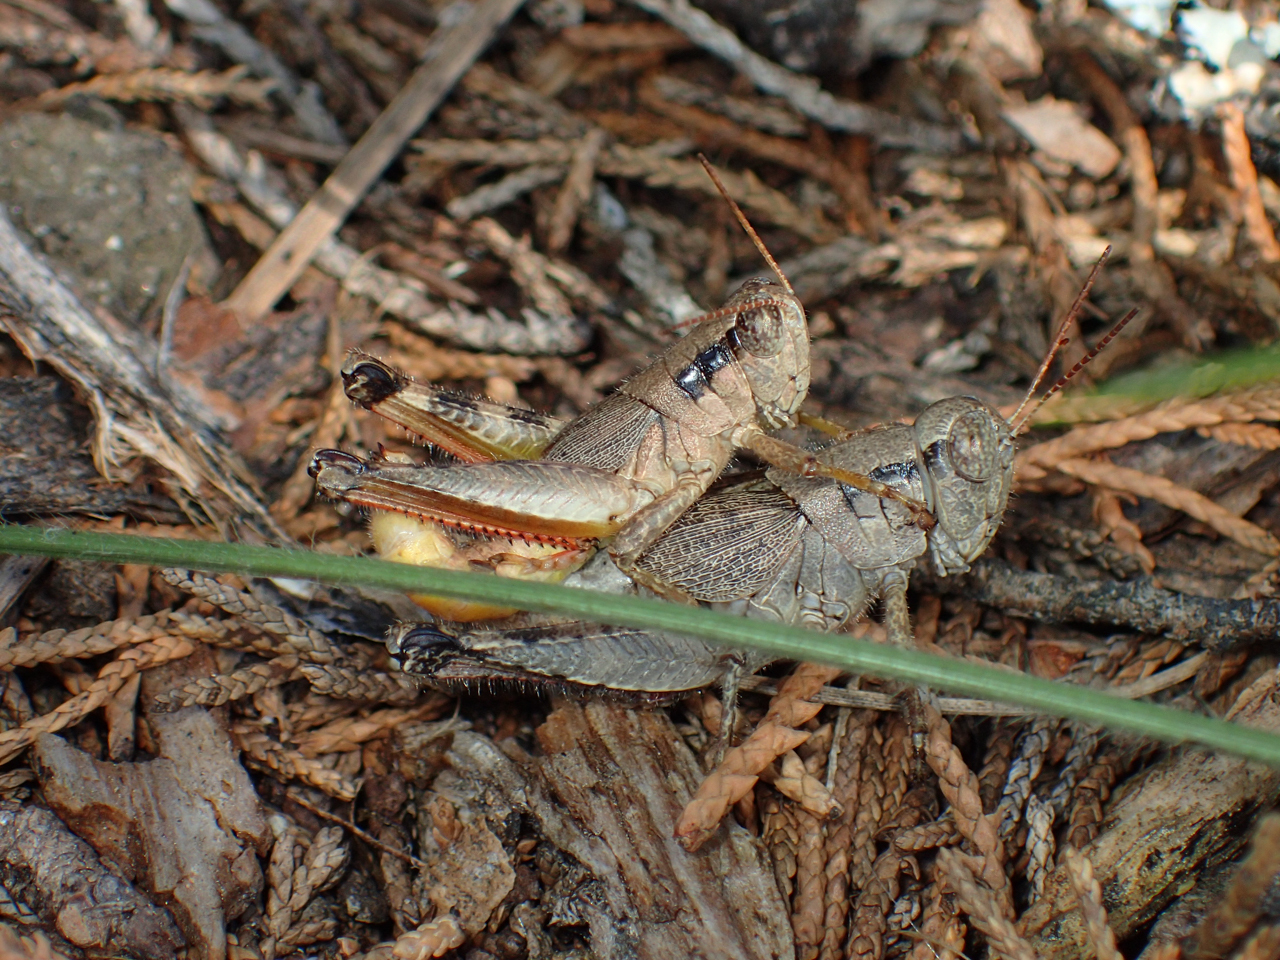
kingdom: Animalia
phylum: Arthropoda
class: Insecta
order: Orthoptera
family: Acrididae
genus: Melanoplus
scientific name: Melanoplus scudderi
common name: Scudder's short-winged locust
